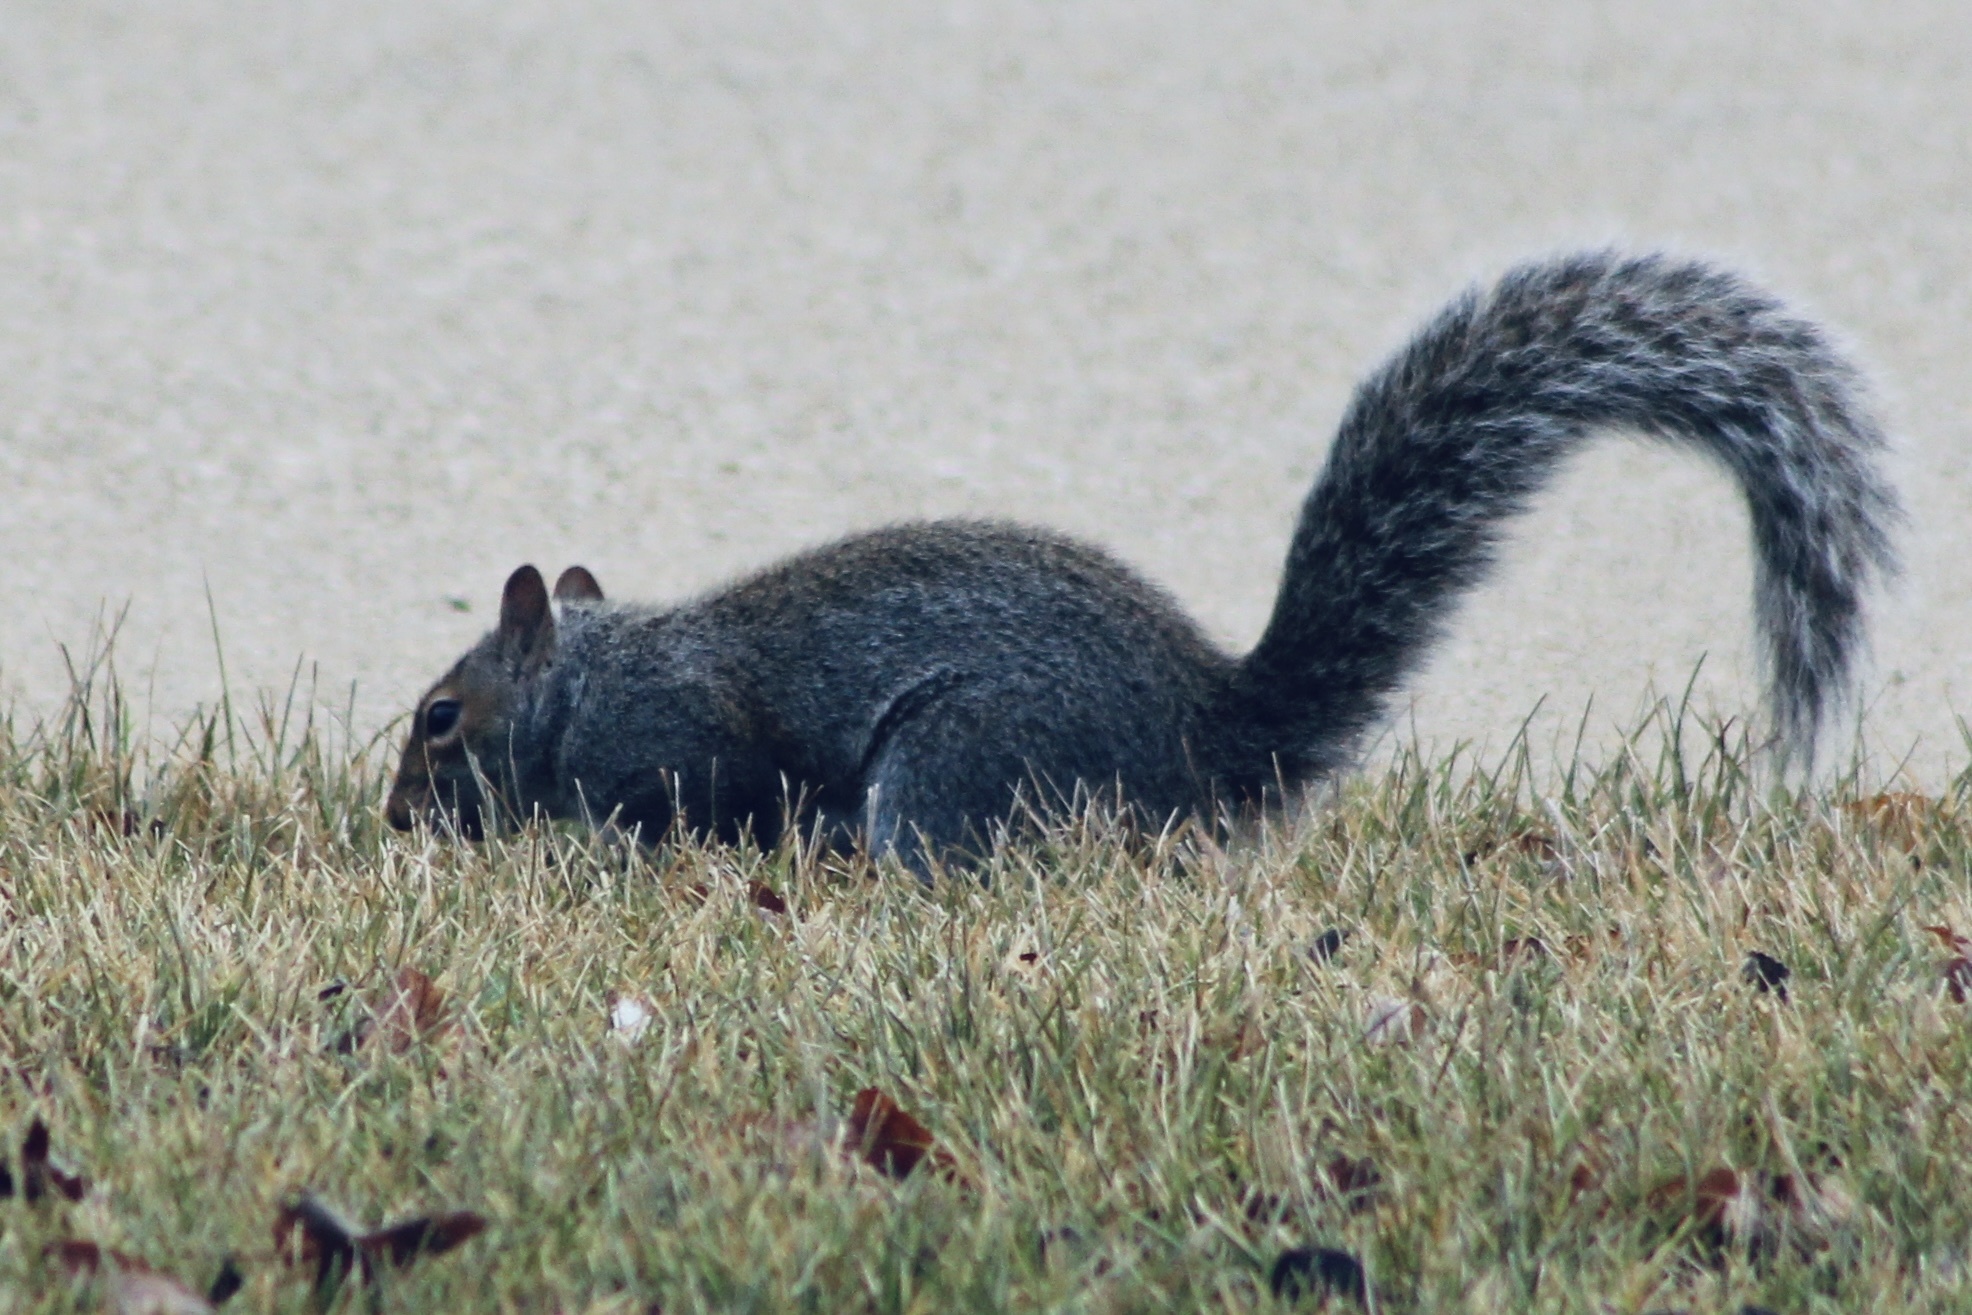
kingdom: Animalia
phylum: Chordata
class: Mammalia
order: Rodentia
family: Sciuridae
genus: Sciurus
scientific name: Sciurus carolinensis
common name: Eastern gray squirrel
